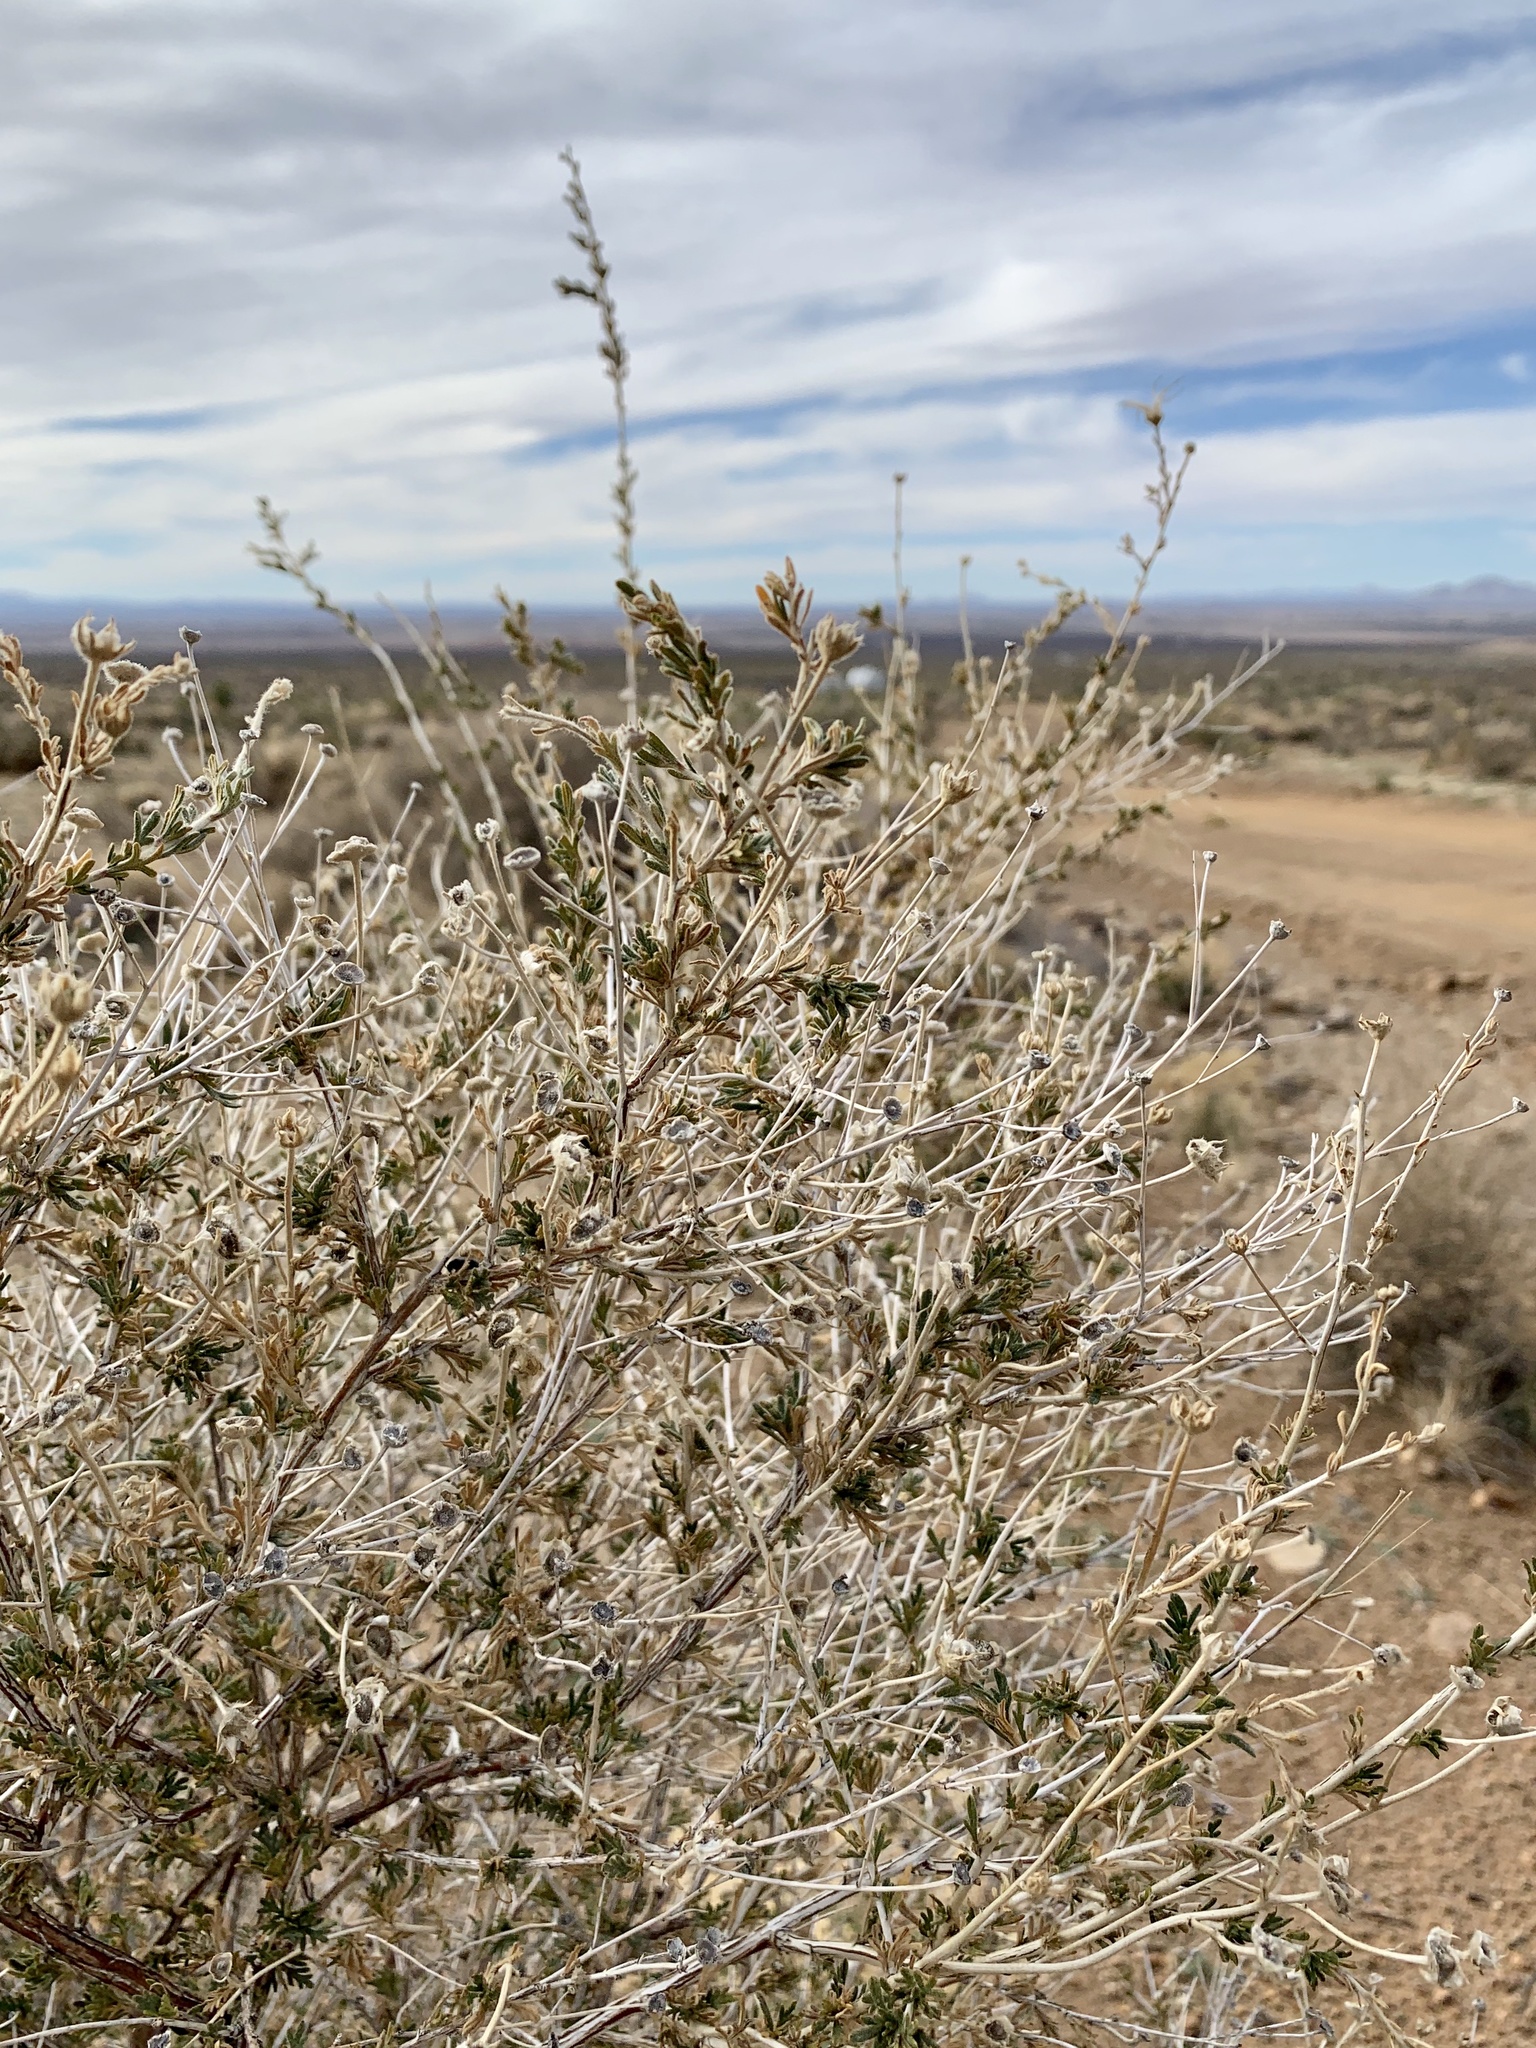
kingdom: Plantae
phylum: Tracheophyta
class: Magnoliopsida
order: Rosales
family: Rosaceae
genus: Fallugia
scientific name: Fallugia paradoxa
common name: Apache-plume
